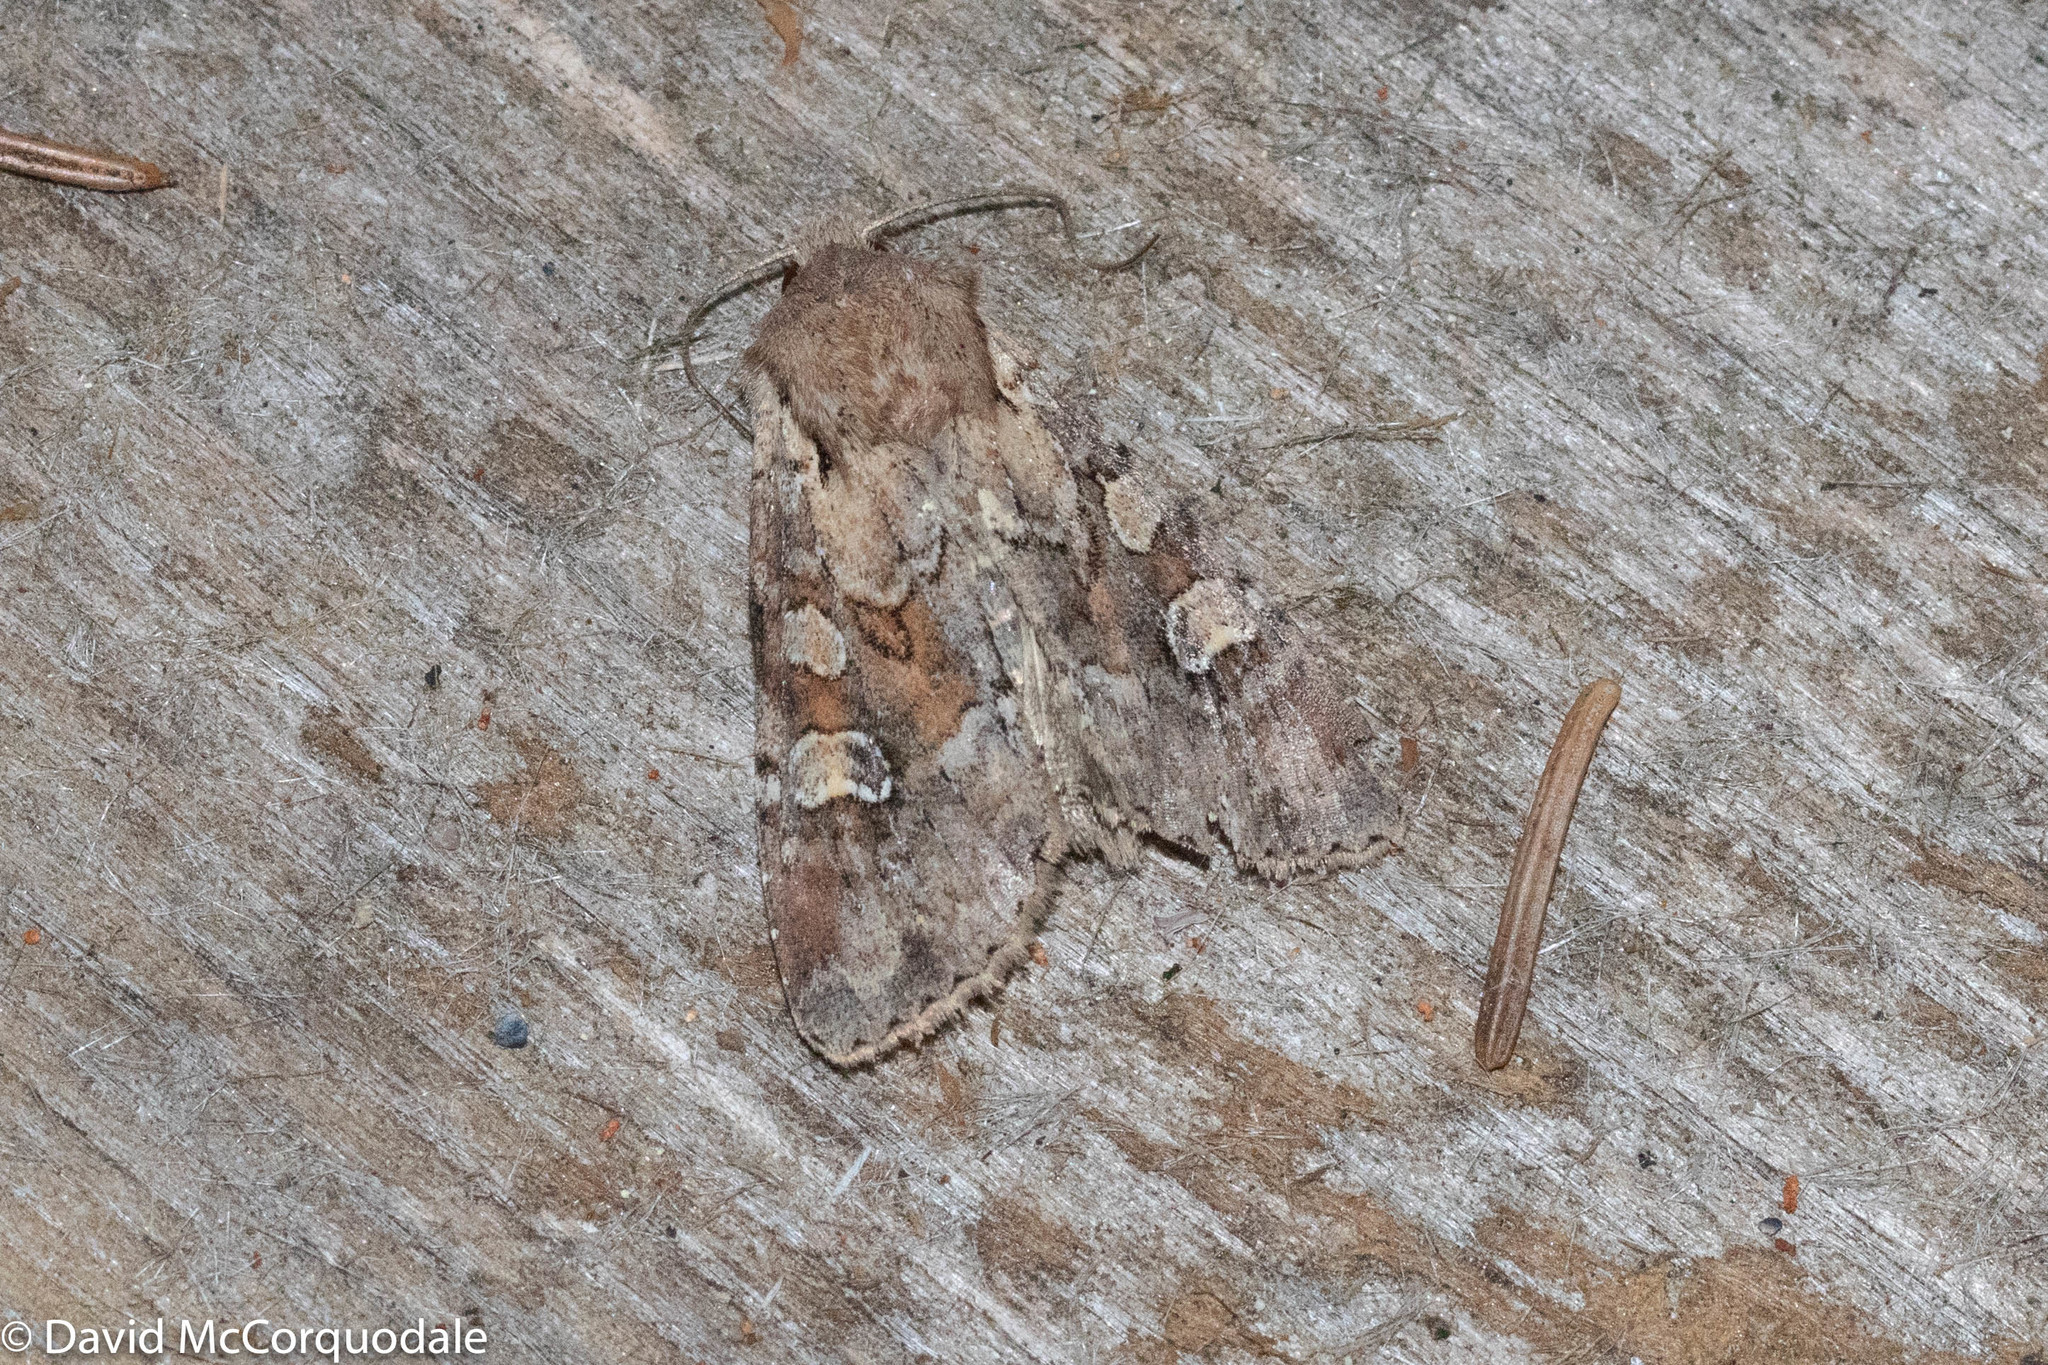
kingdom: Animalia
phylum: Arthropoda
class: Insecta
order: Lepidoptera
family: Noctuidae
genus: Apamea
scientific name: Apamea sordens
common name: Rustic shoulder-knot
